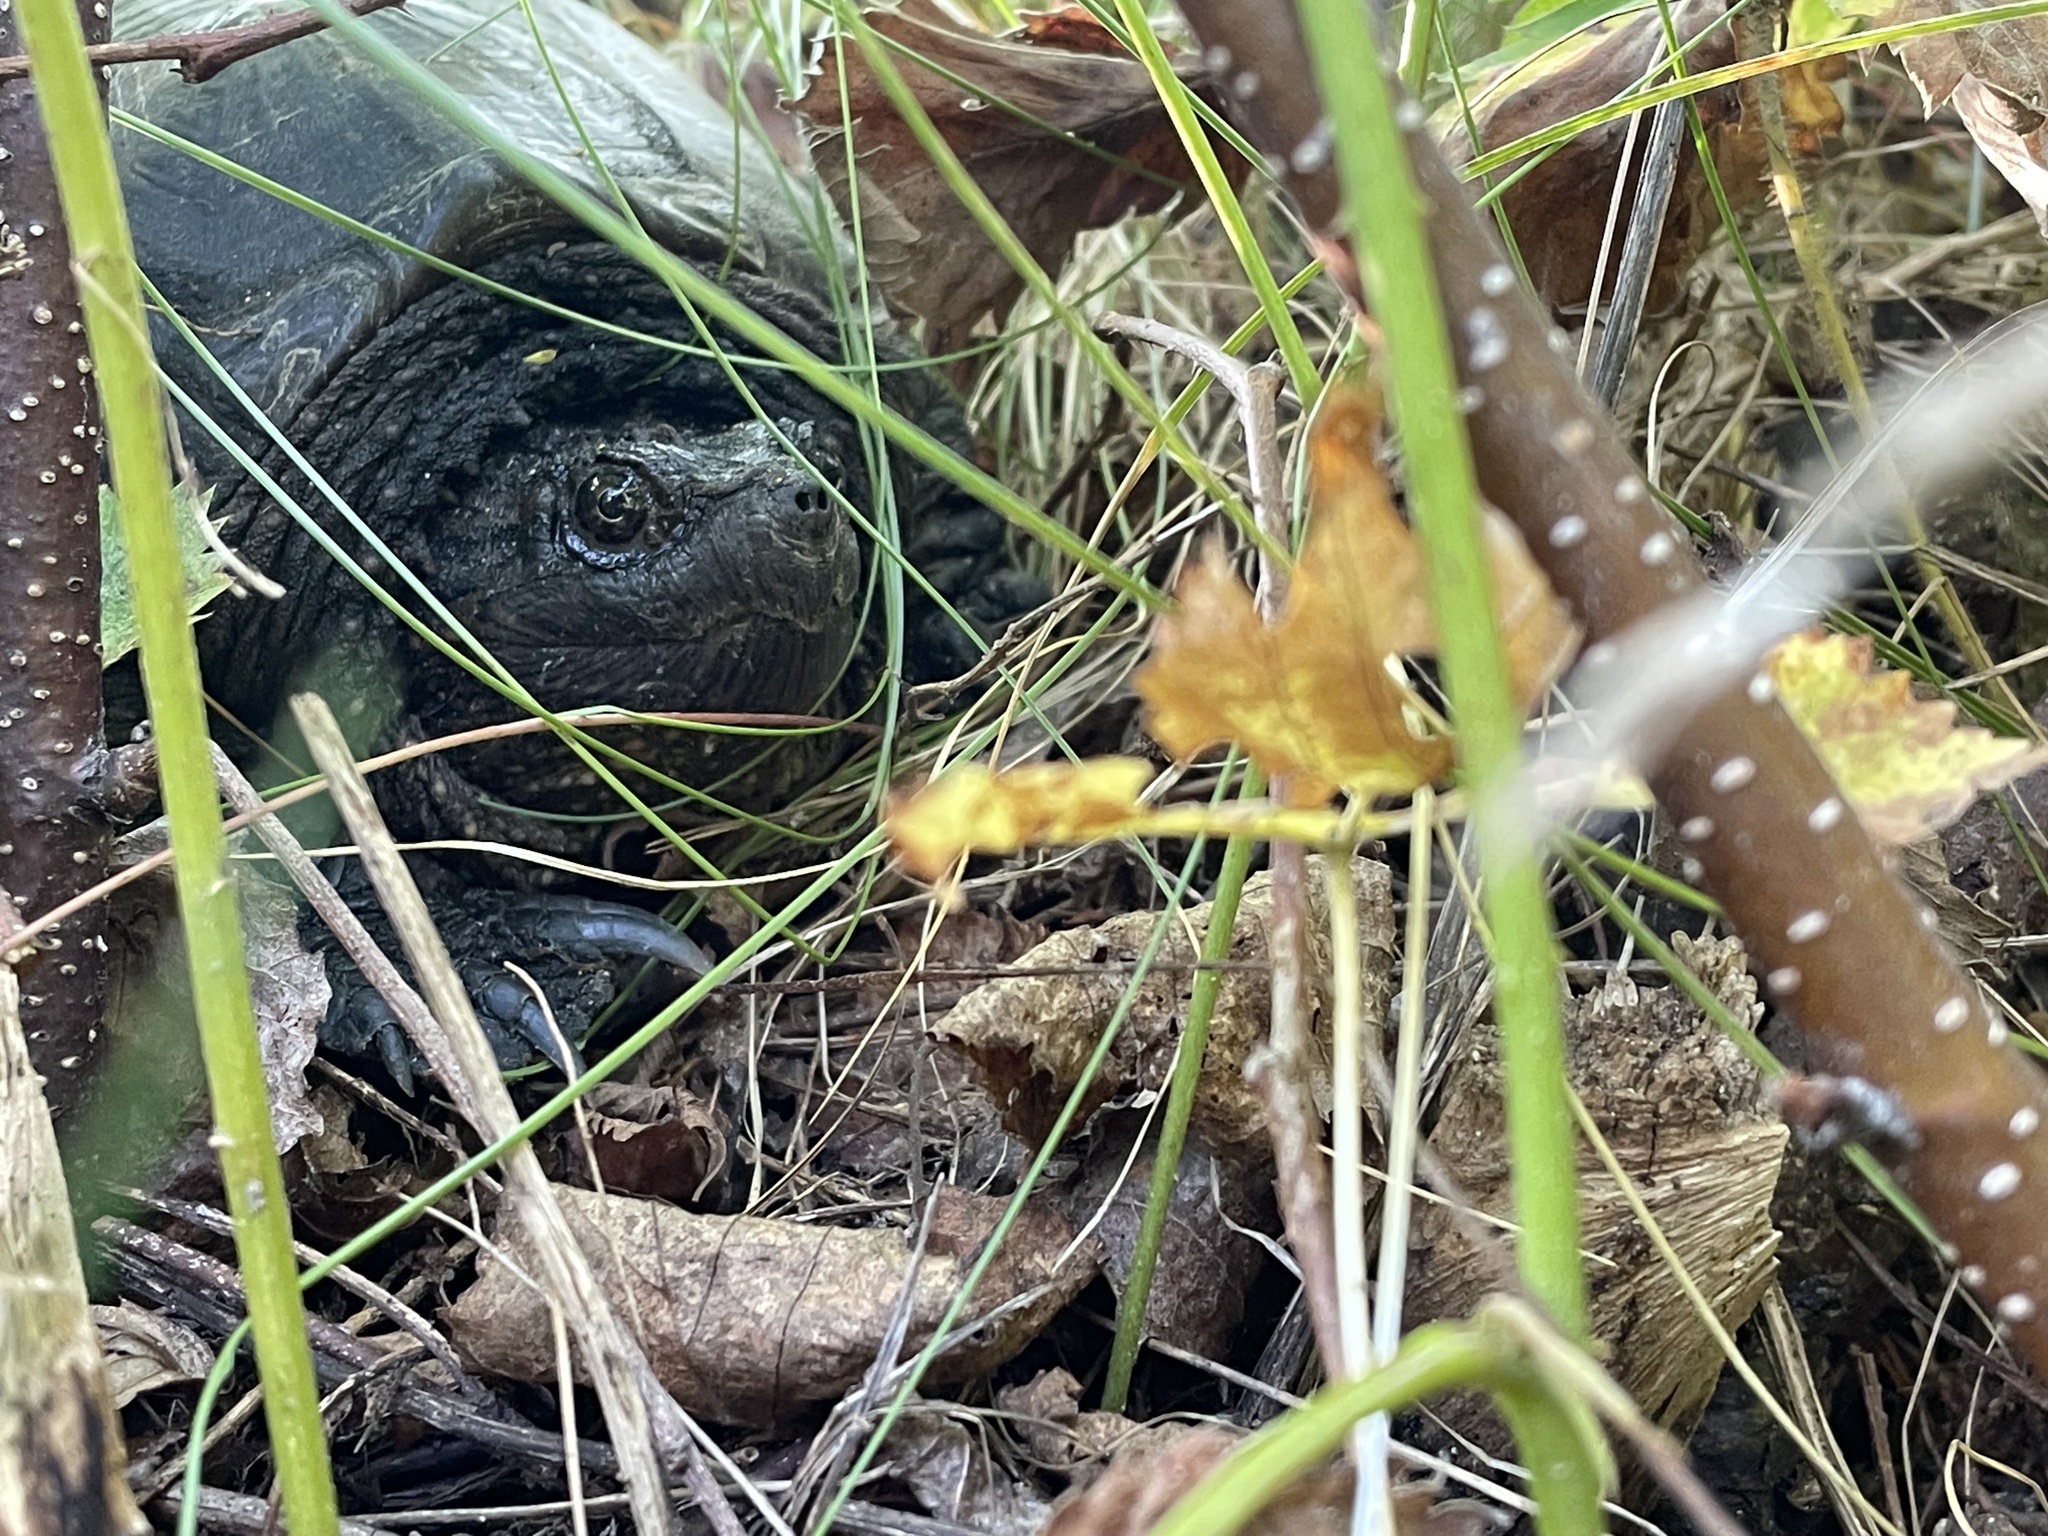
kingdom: Animalia
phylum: Chordata
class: Testudines
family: Chelydridae
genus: Chelydra
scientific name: Chelydra serpentina
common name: Common snapping turtle
